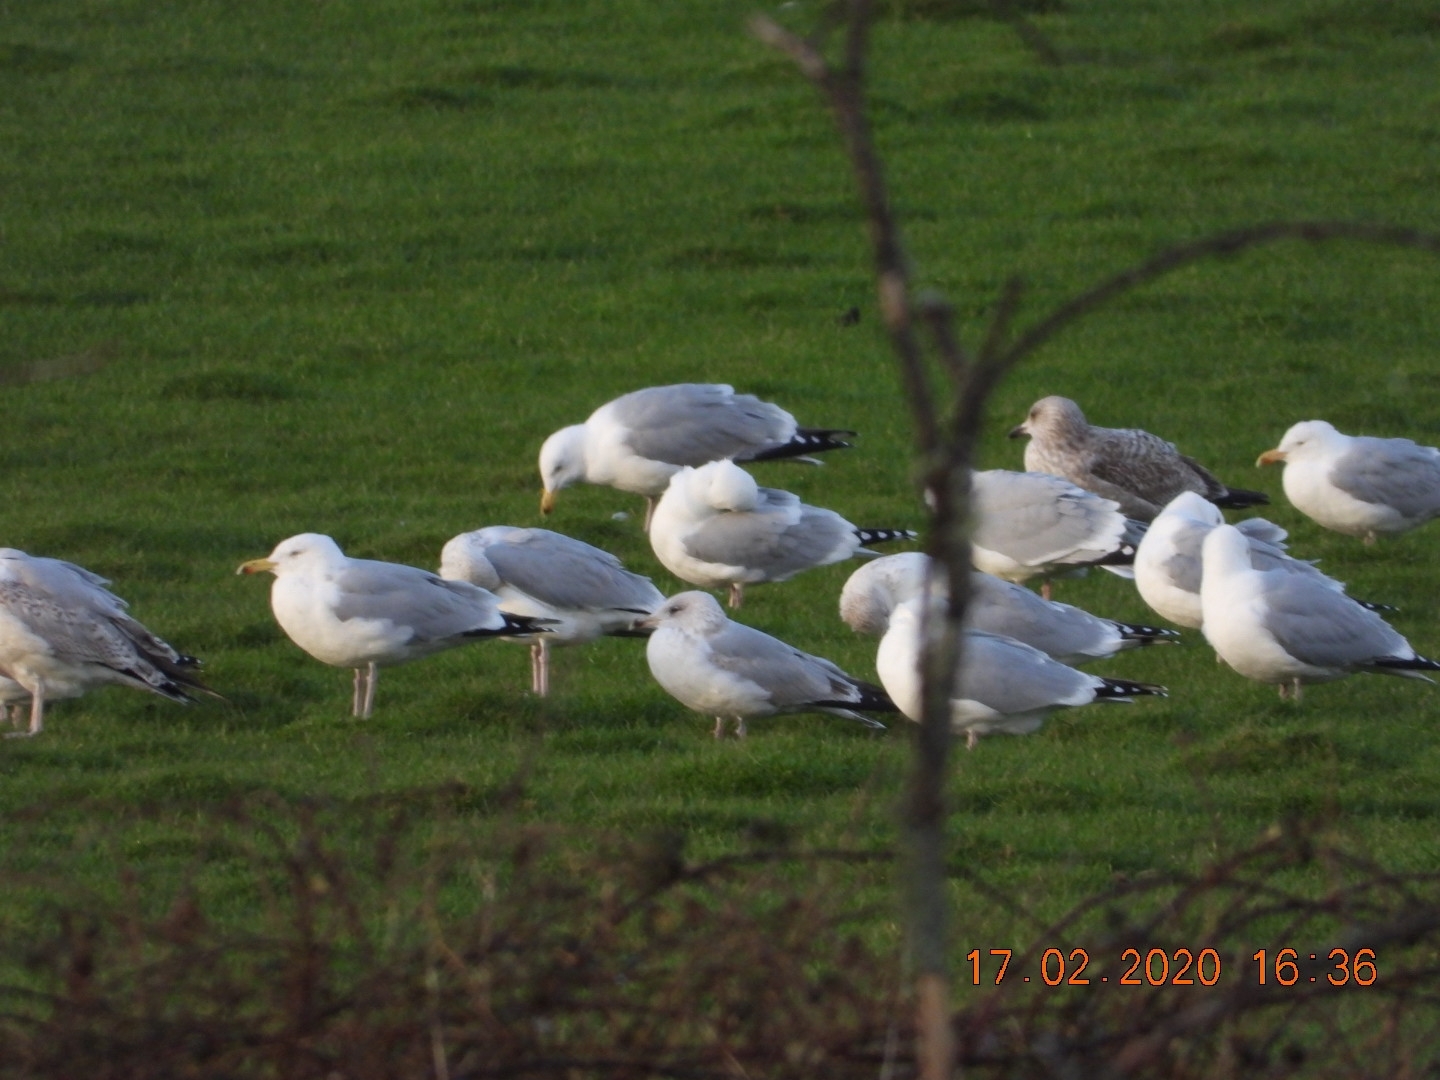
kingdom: Animalia
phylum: Chordata
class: Aves
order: Charadriiformes
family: Laridae
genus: Larus
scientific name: Larus argentatus
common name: Herring gull
